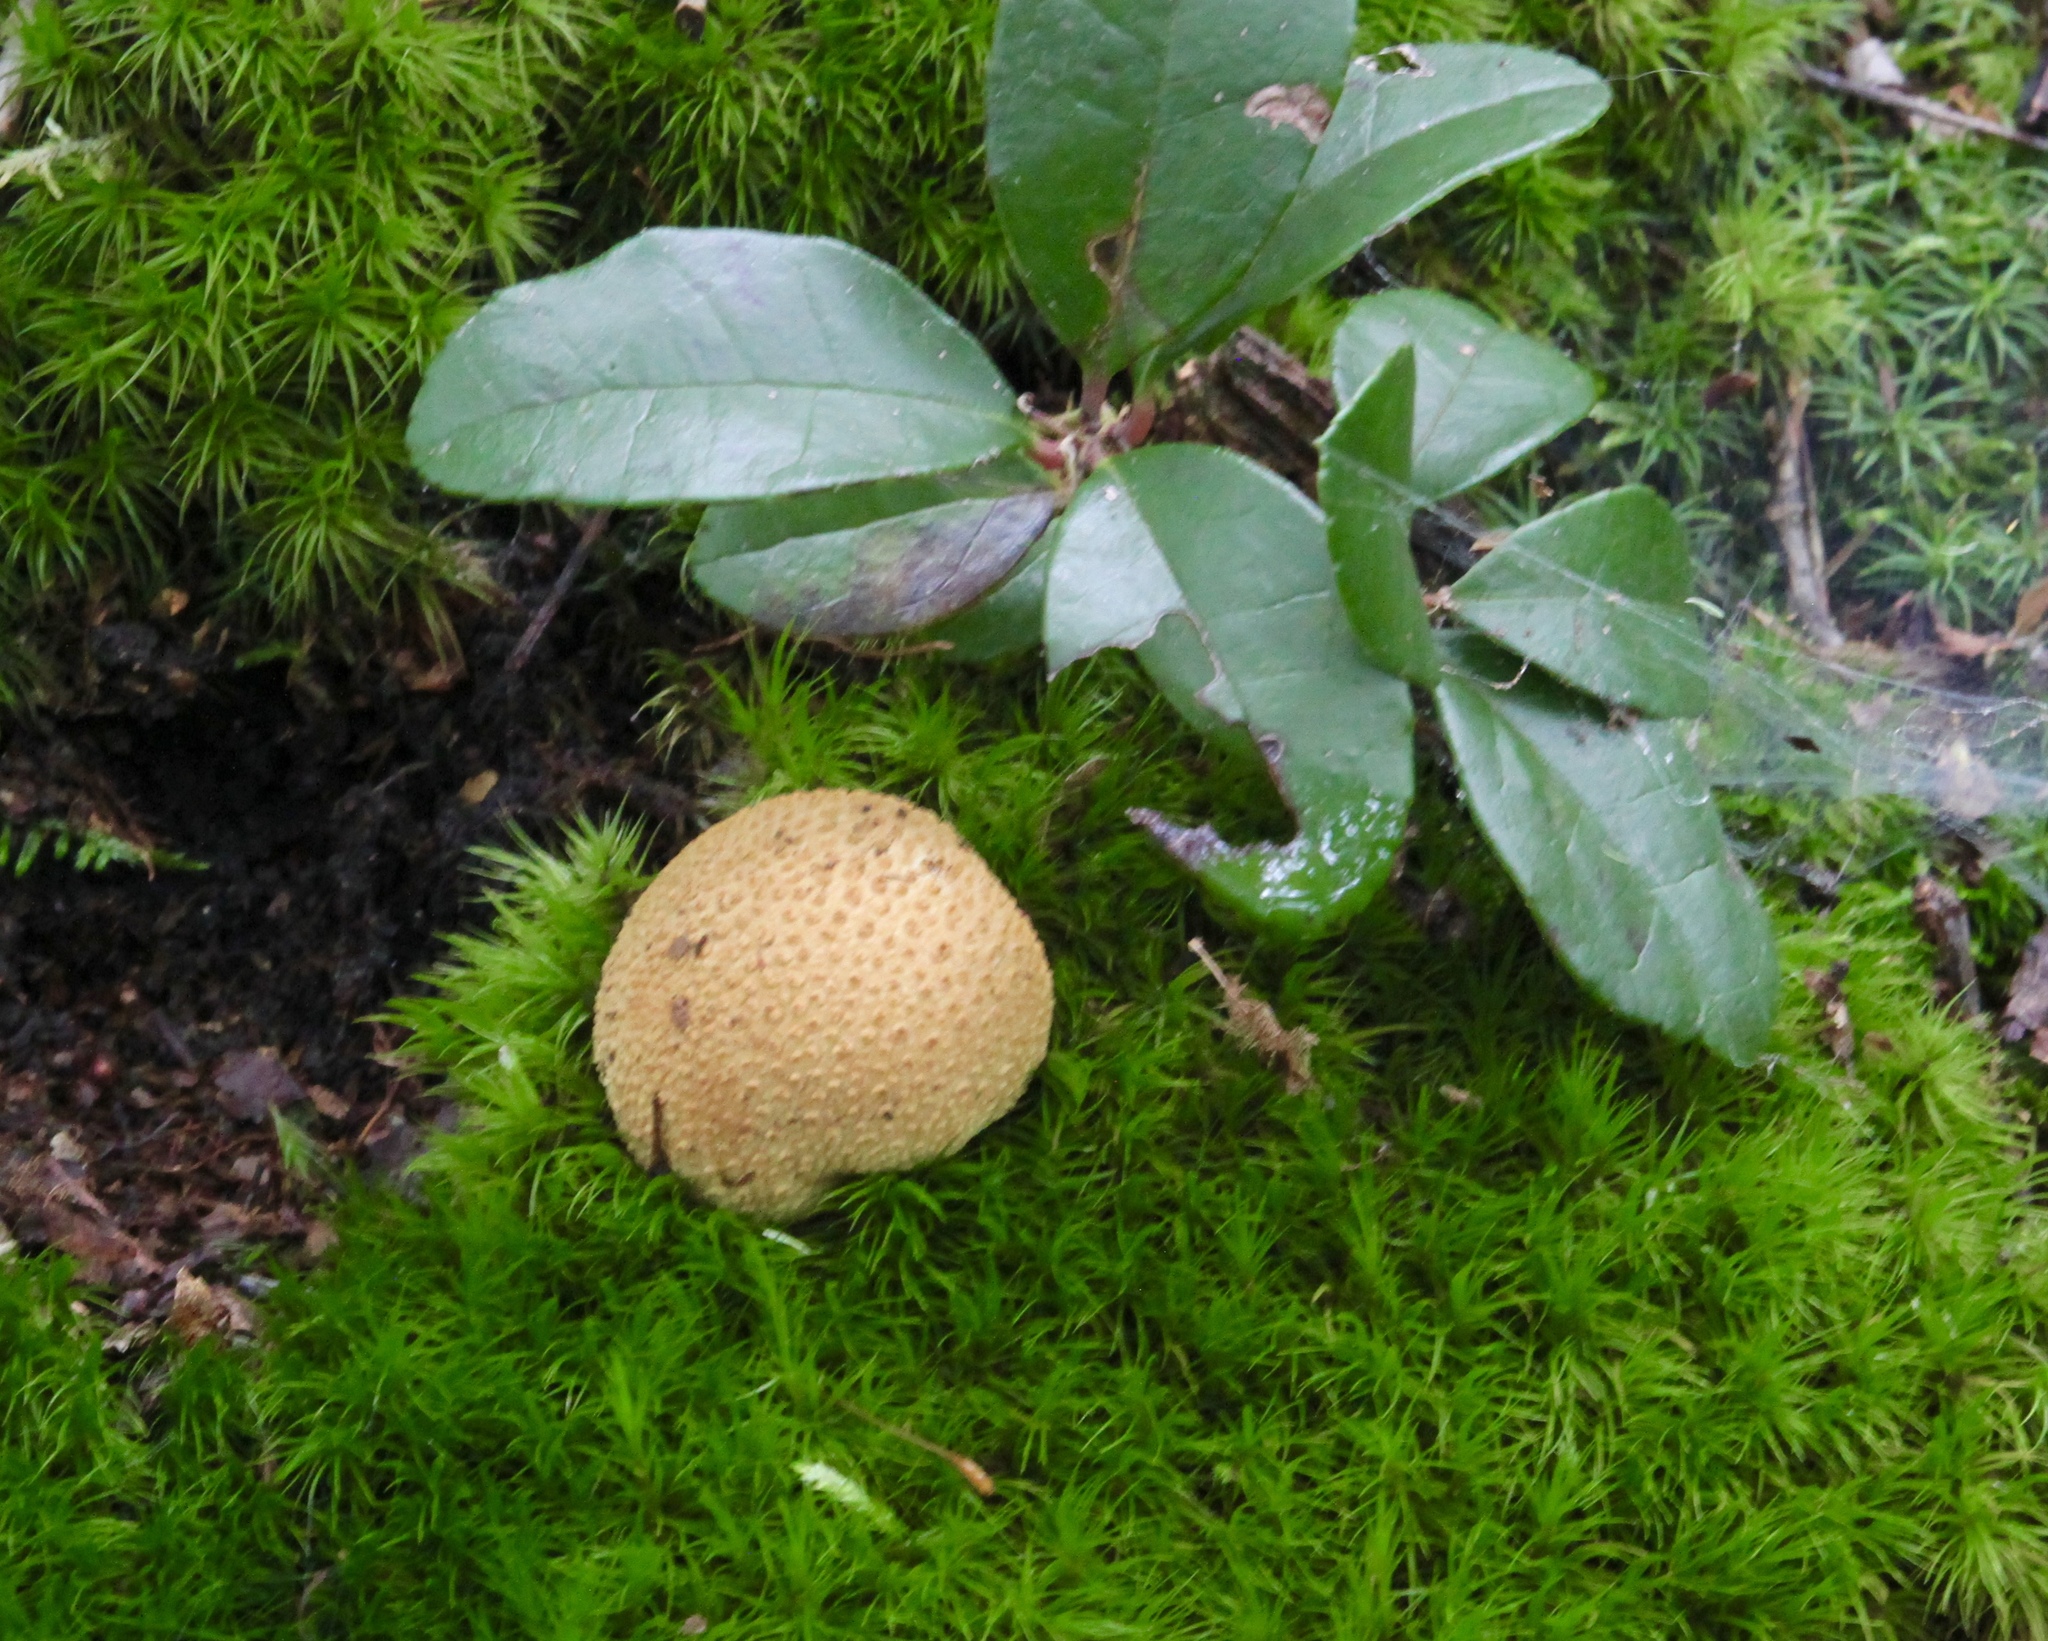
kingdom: Fungi
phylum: Basidiomycota
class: Agaricomycetes
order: Boletales
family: Sclerodermataceae
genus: Scleroderma
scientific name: Scleroderma citrinum
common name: Common earthball
